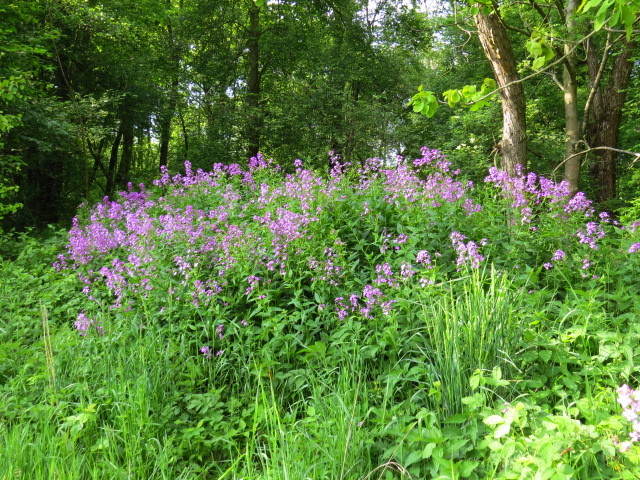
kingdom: Plantae
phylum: Tracheophyta
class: Magnoliopsida
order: Brassicales
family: Brassicaceae
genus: Hesperis
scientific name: Hesperis matronalis
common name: Dame's-violet
